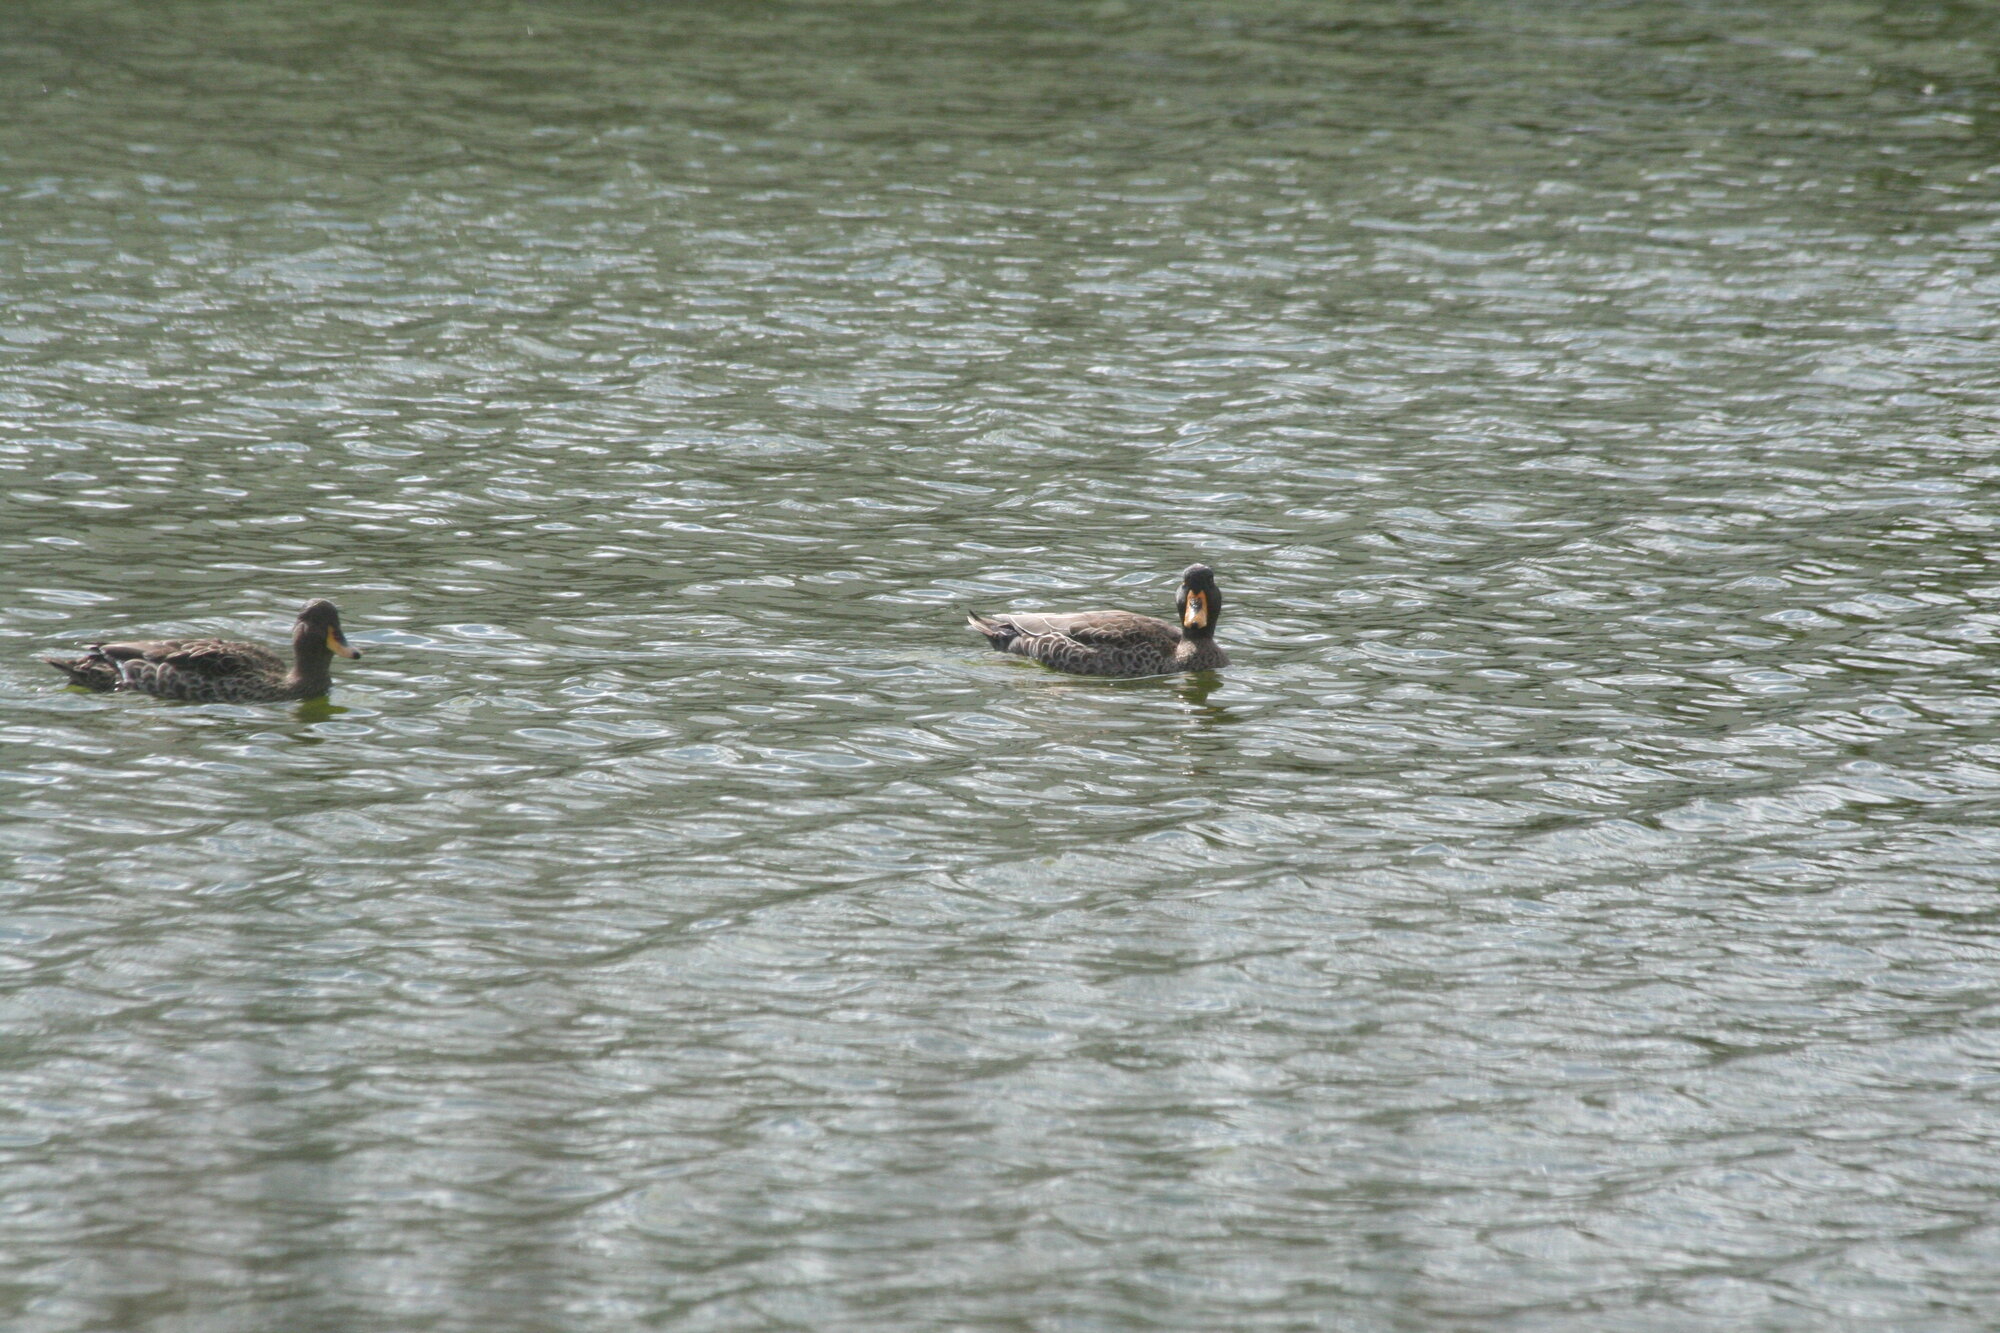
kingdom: Animalia
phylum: Chordata
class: Aves
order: Anseriformes
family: Anatidae
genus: Anas
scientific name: Anas undulata
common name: Yellow-billed duck
